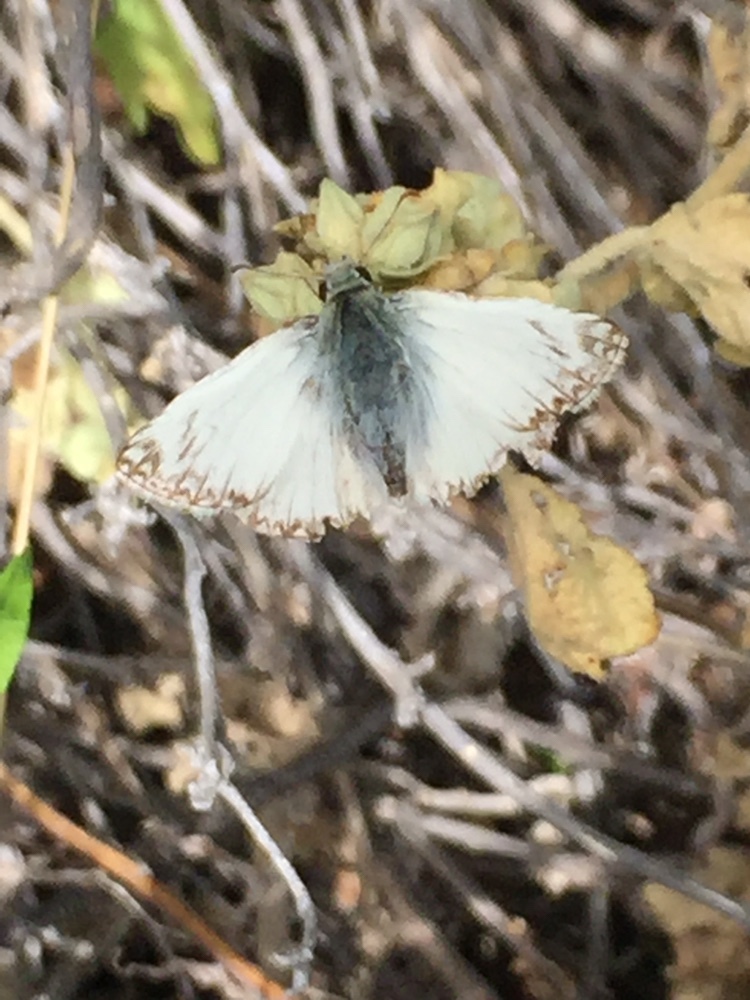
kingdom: Animalia
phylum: Arthropoda
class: Insecta
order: Lepidoptera
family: Hesperiidae
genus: Heliopetes
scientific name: Heliopetes ericetorum
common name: Northern white-skipper
